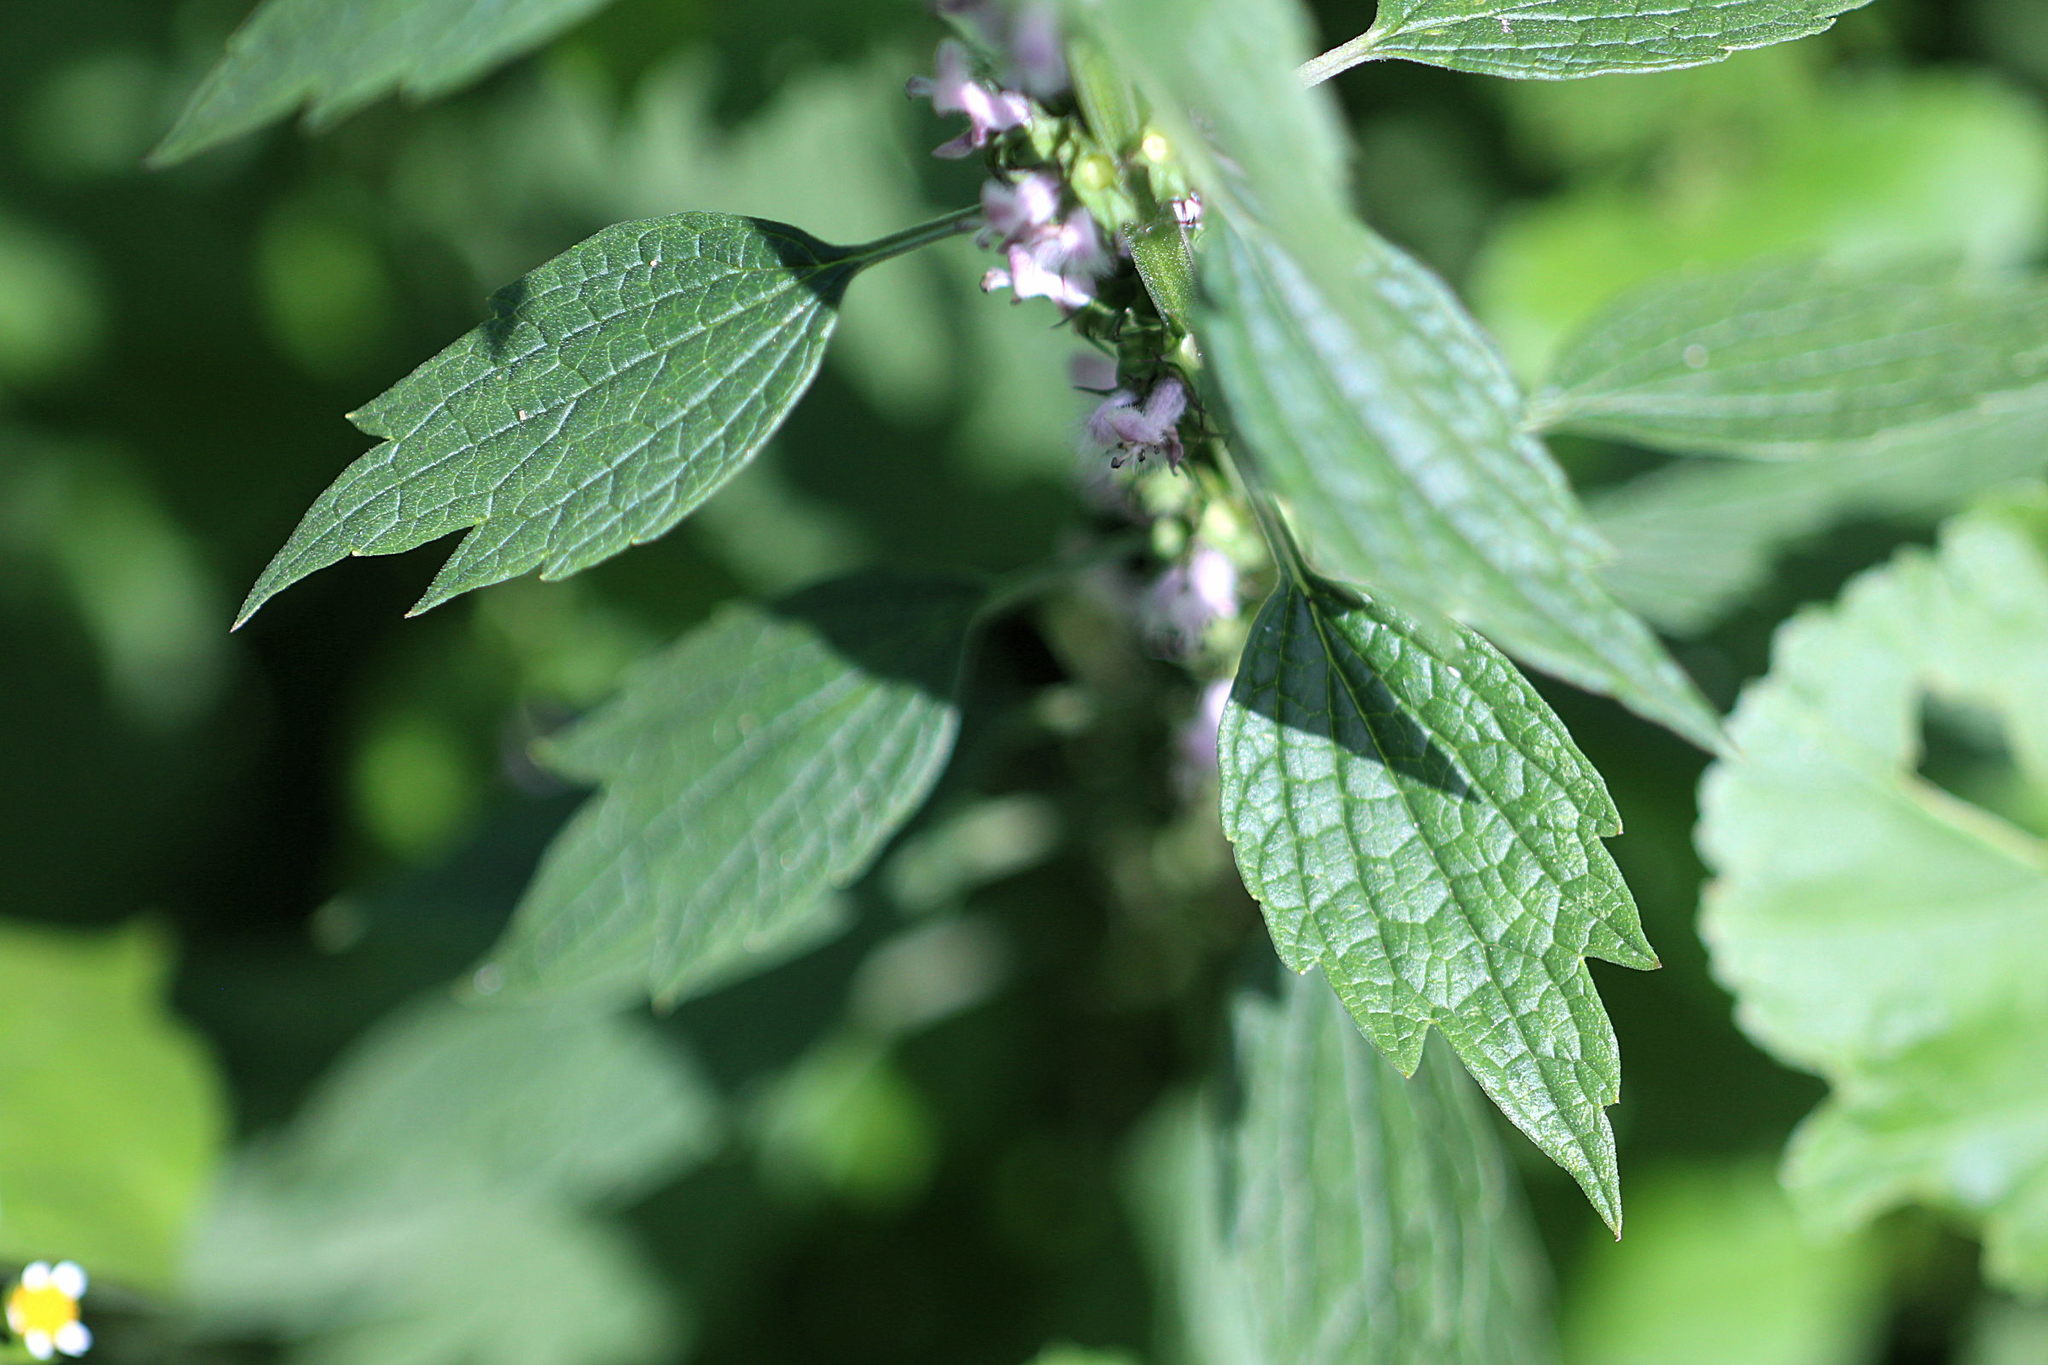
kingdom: Plantae
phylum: Tracheophyta
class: Magnoliopsida
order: Lamiales
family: Lamiaceae
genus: Leonurus
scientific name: Leonurus cardiaca
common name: Motherwort
